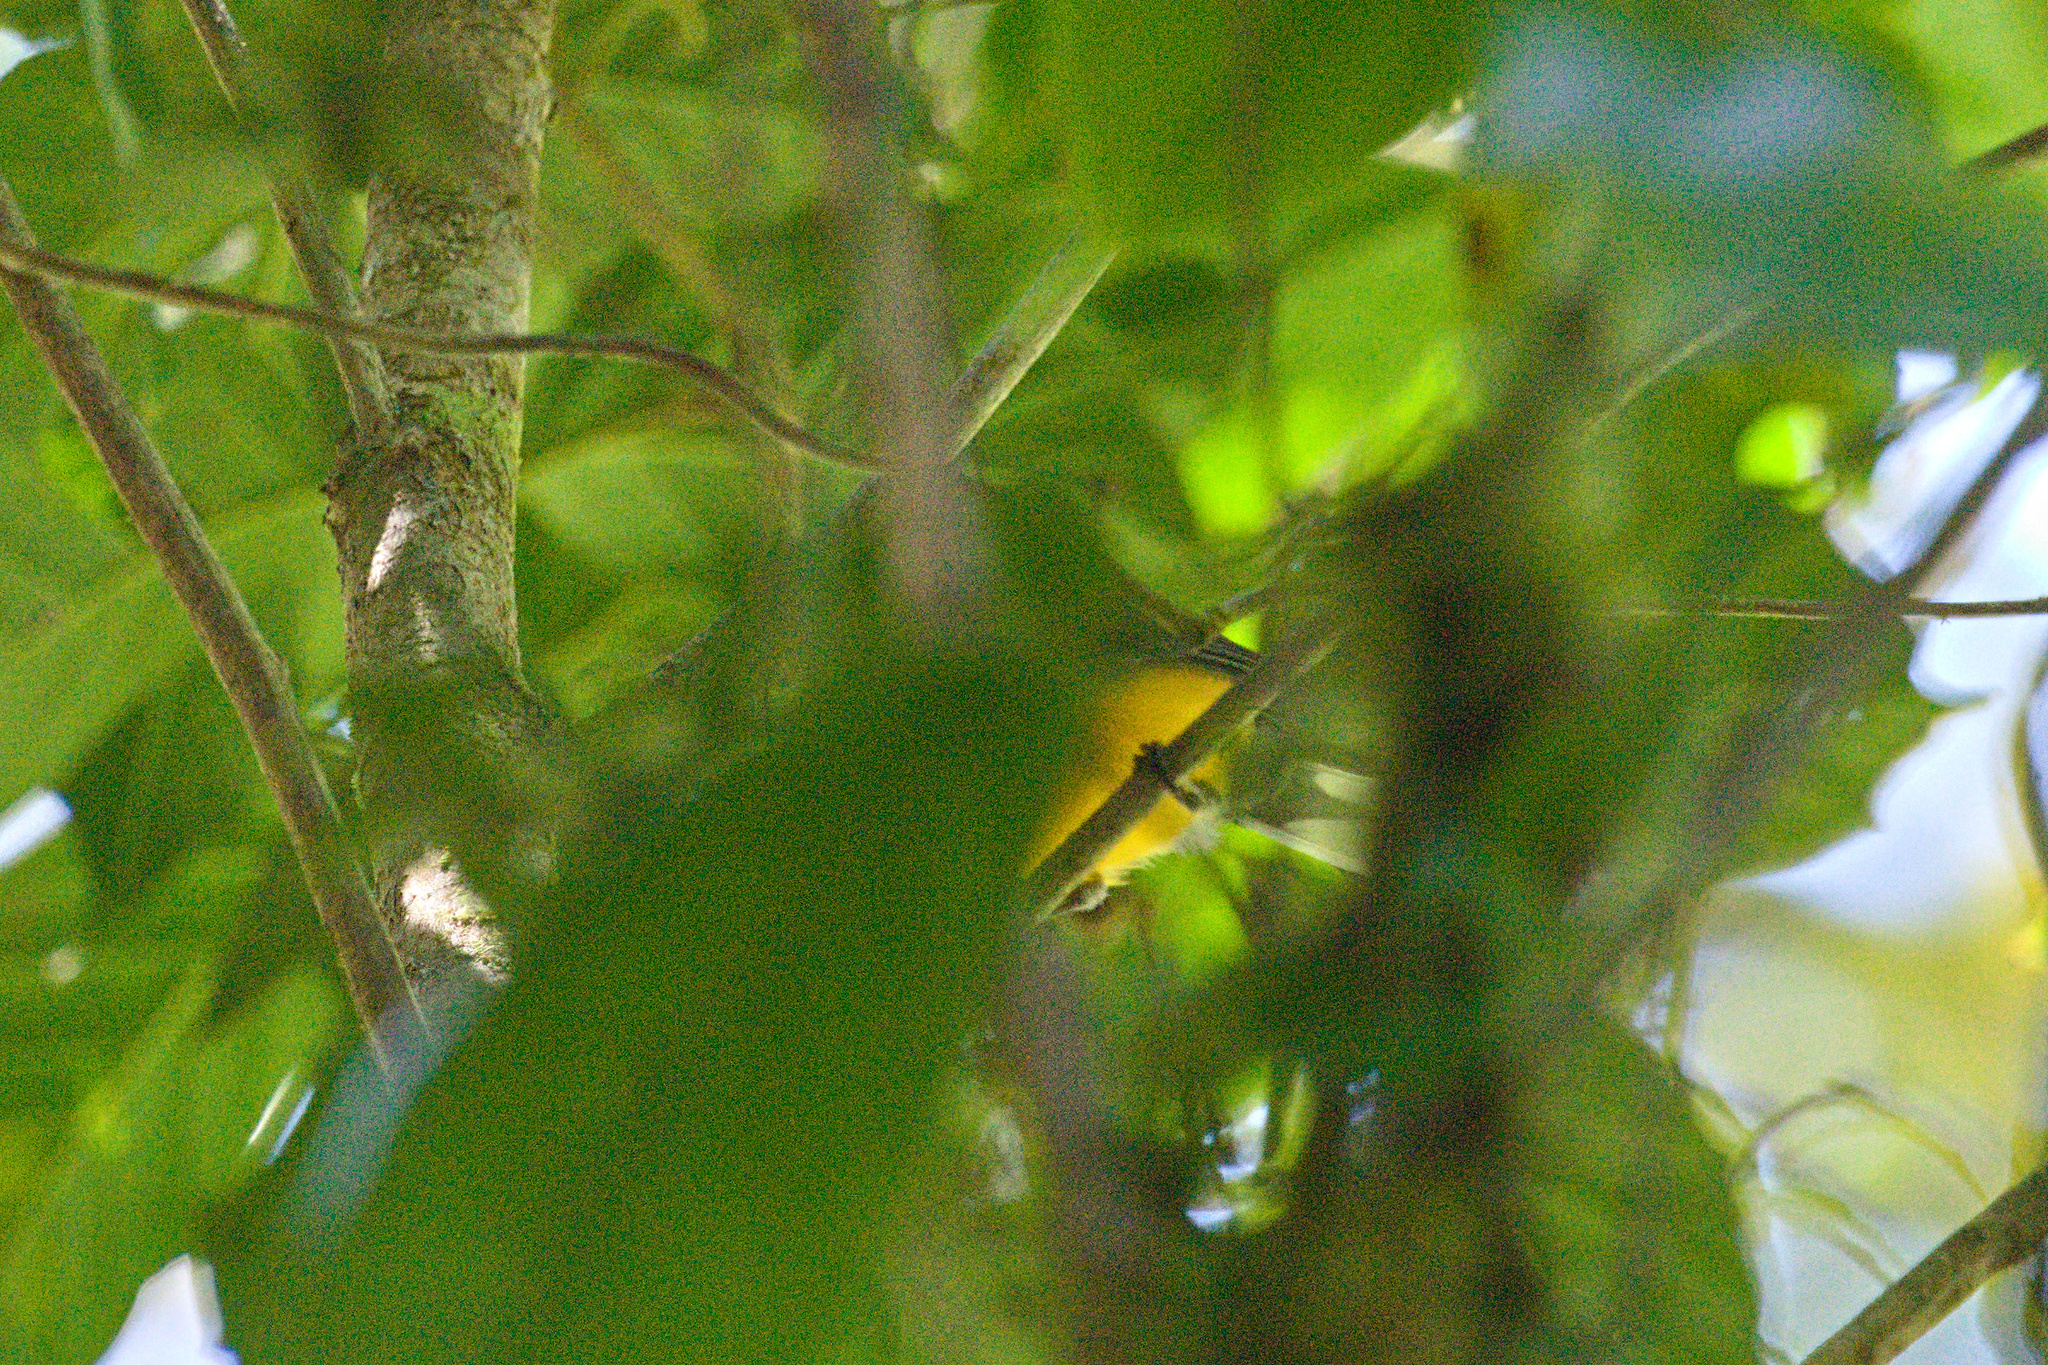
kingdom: Animalia
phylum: Chordata
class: Aves
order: Passeriformes
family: Parulidae
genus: Myioborus
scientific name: Myioborus miniatus
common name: Slate-throated redstart
